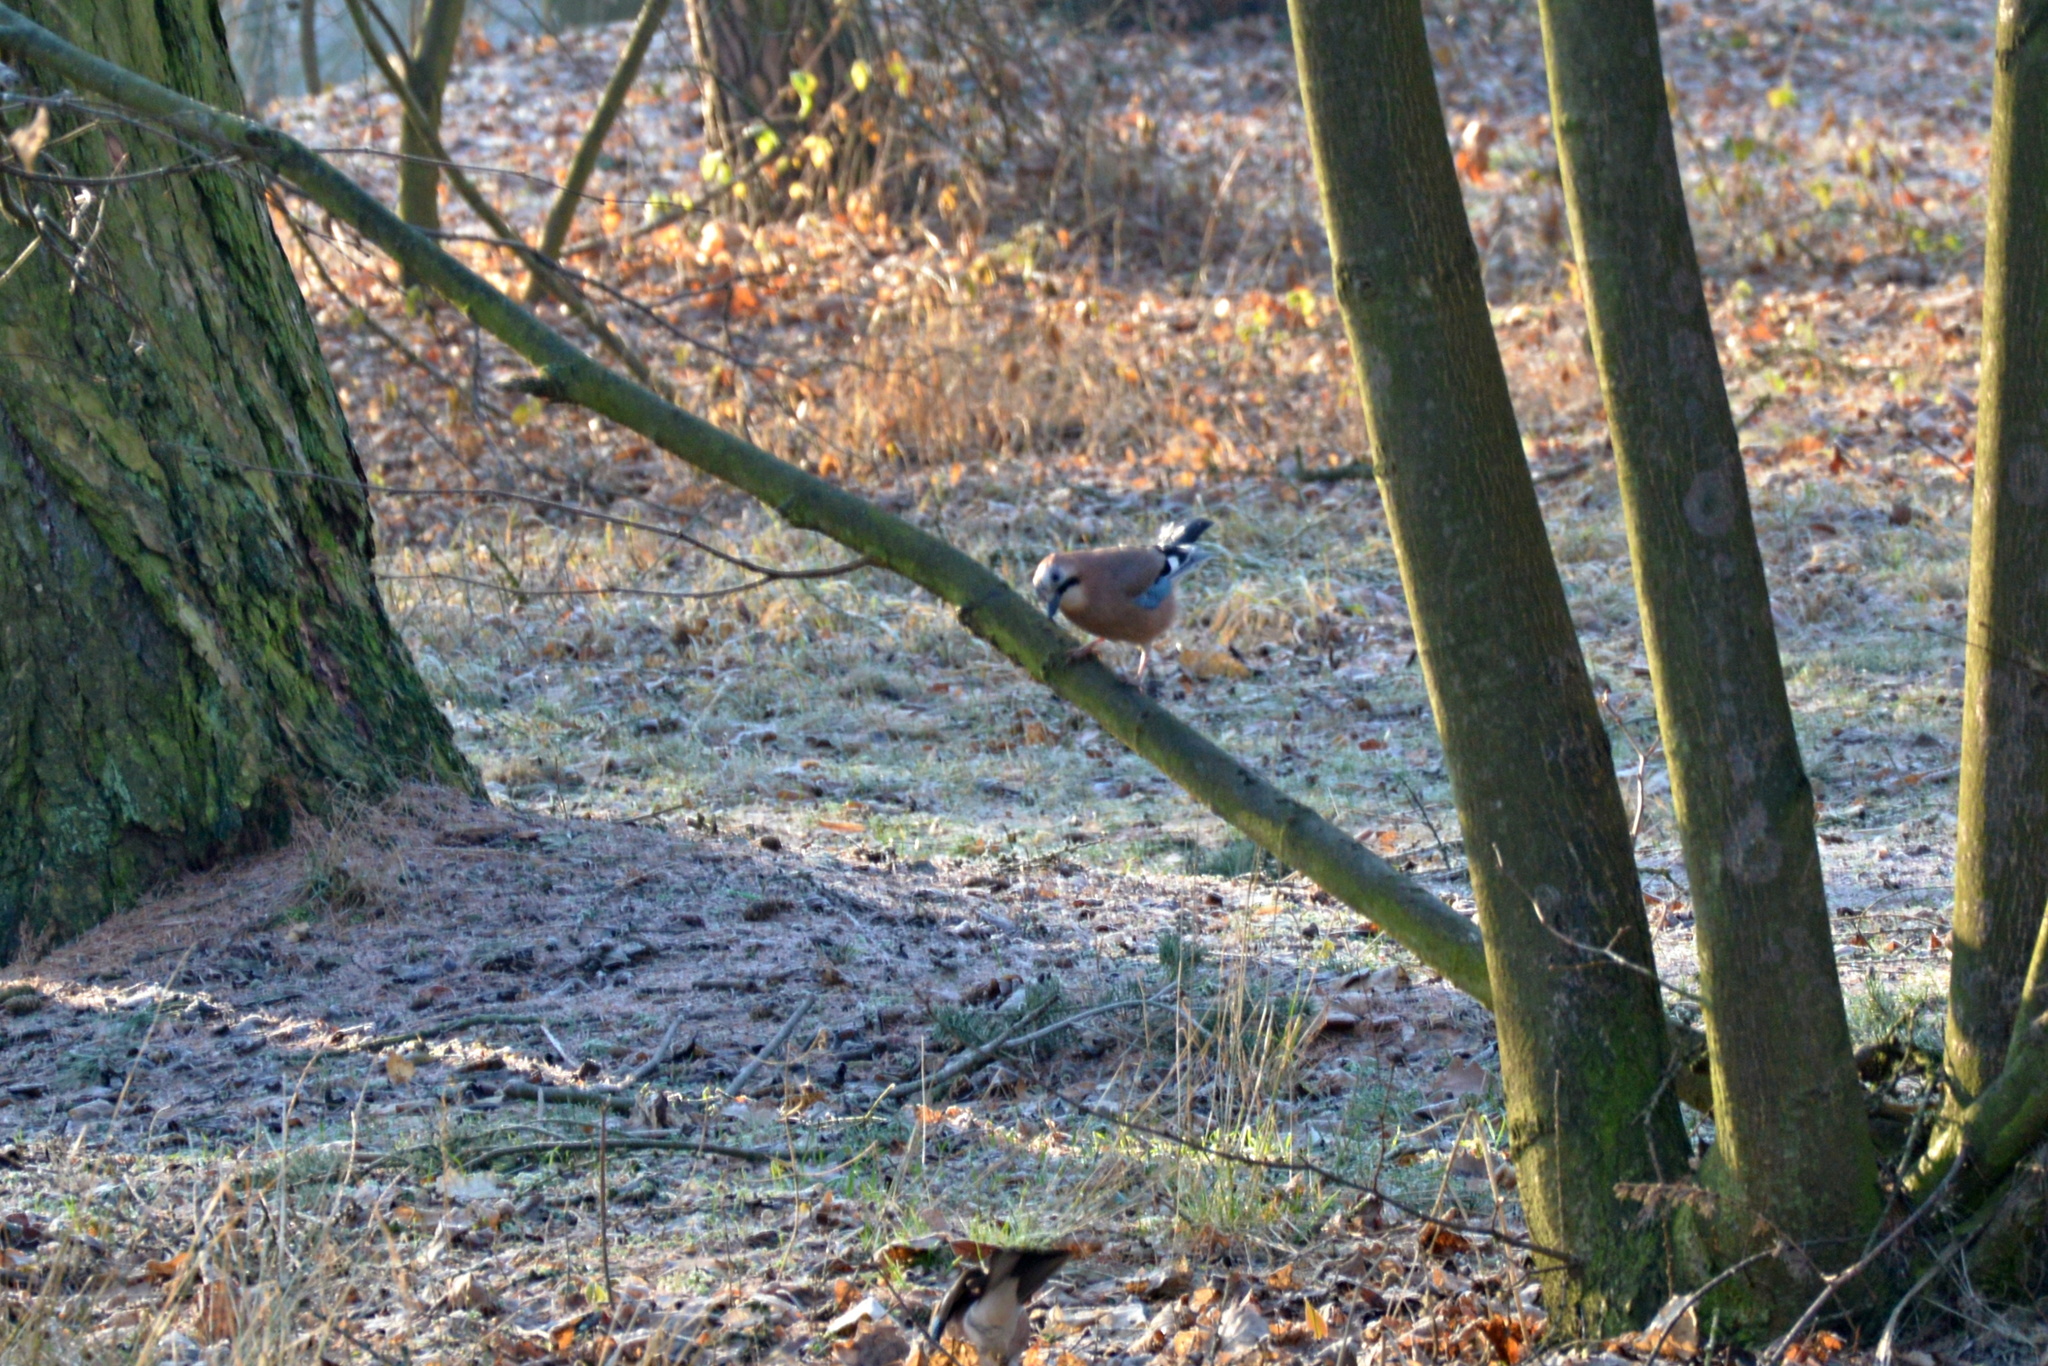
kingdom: Animalia
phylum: Chordata
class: Aves
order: Passeriformes
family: Corvidae
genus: Garrulus
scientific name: Garrulus glandarius
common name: Eurasian jay
